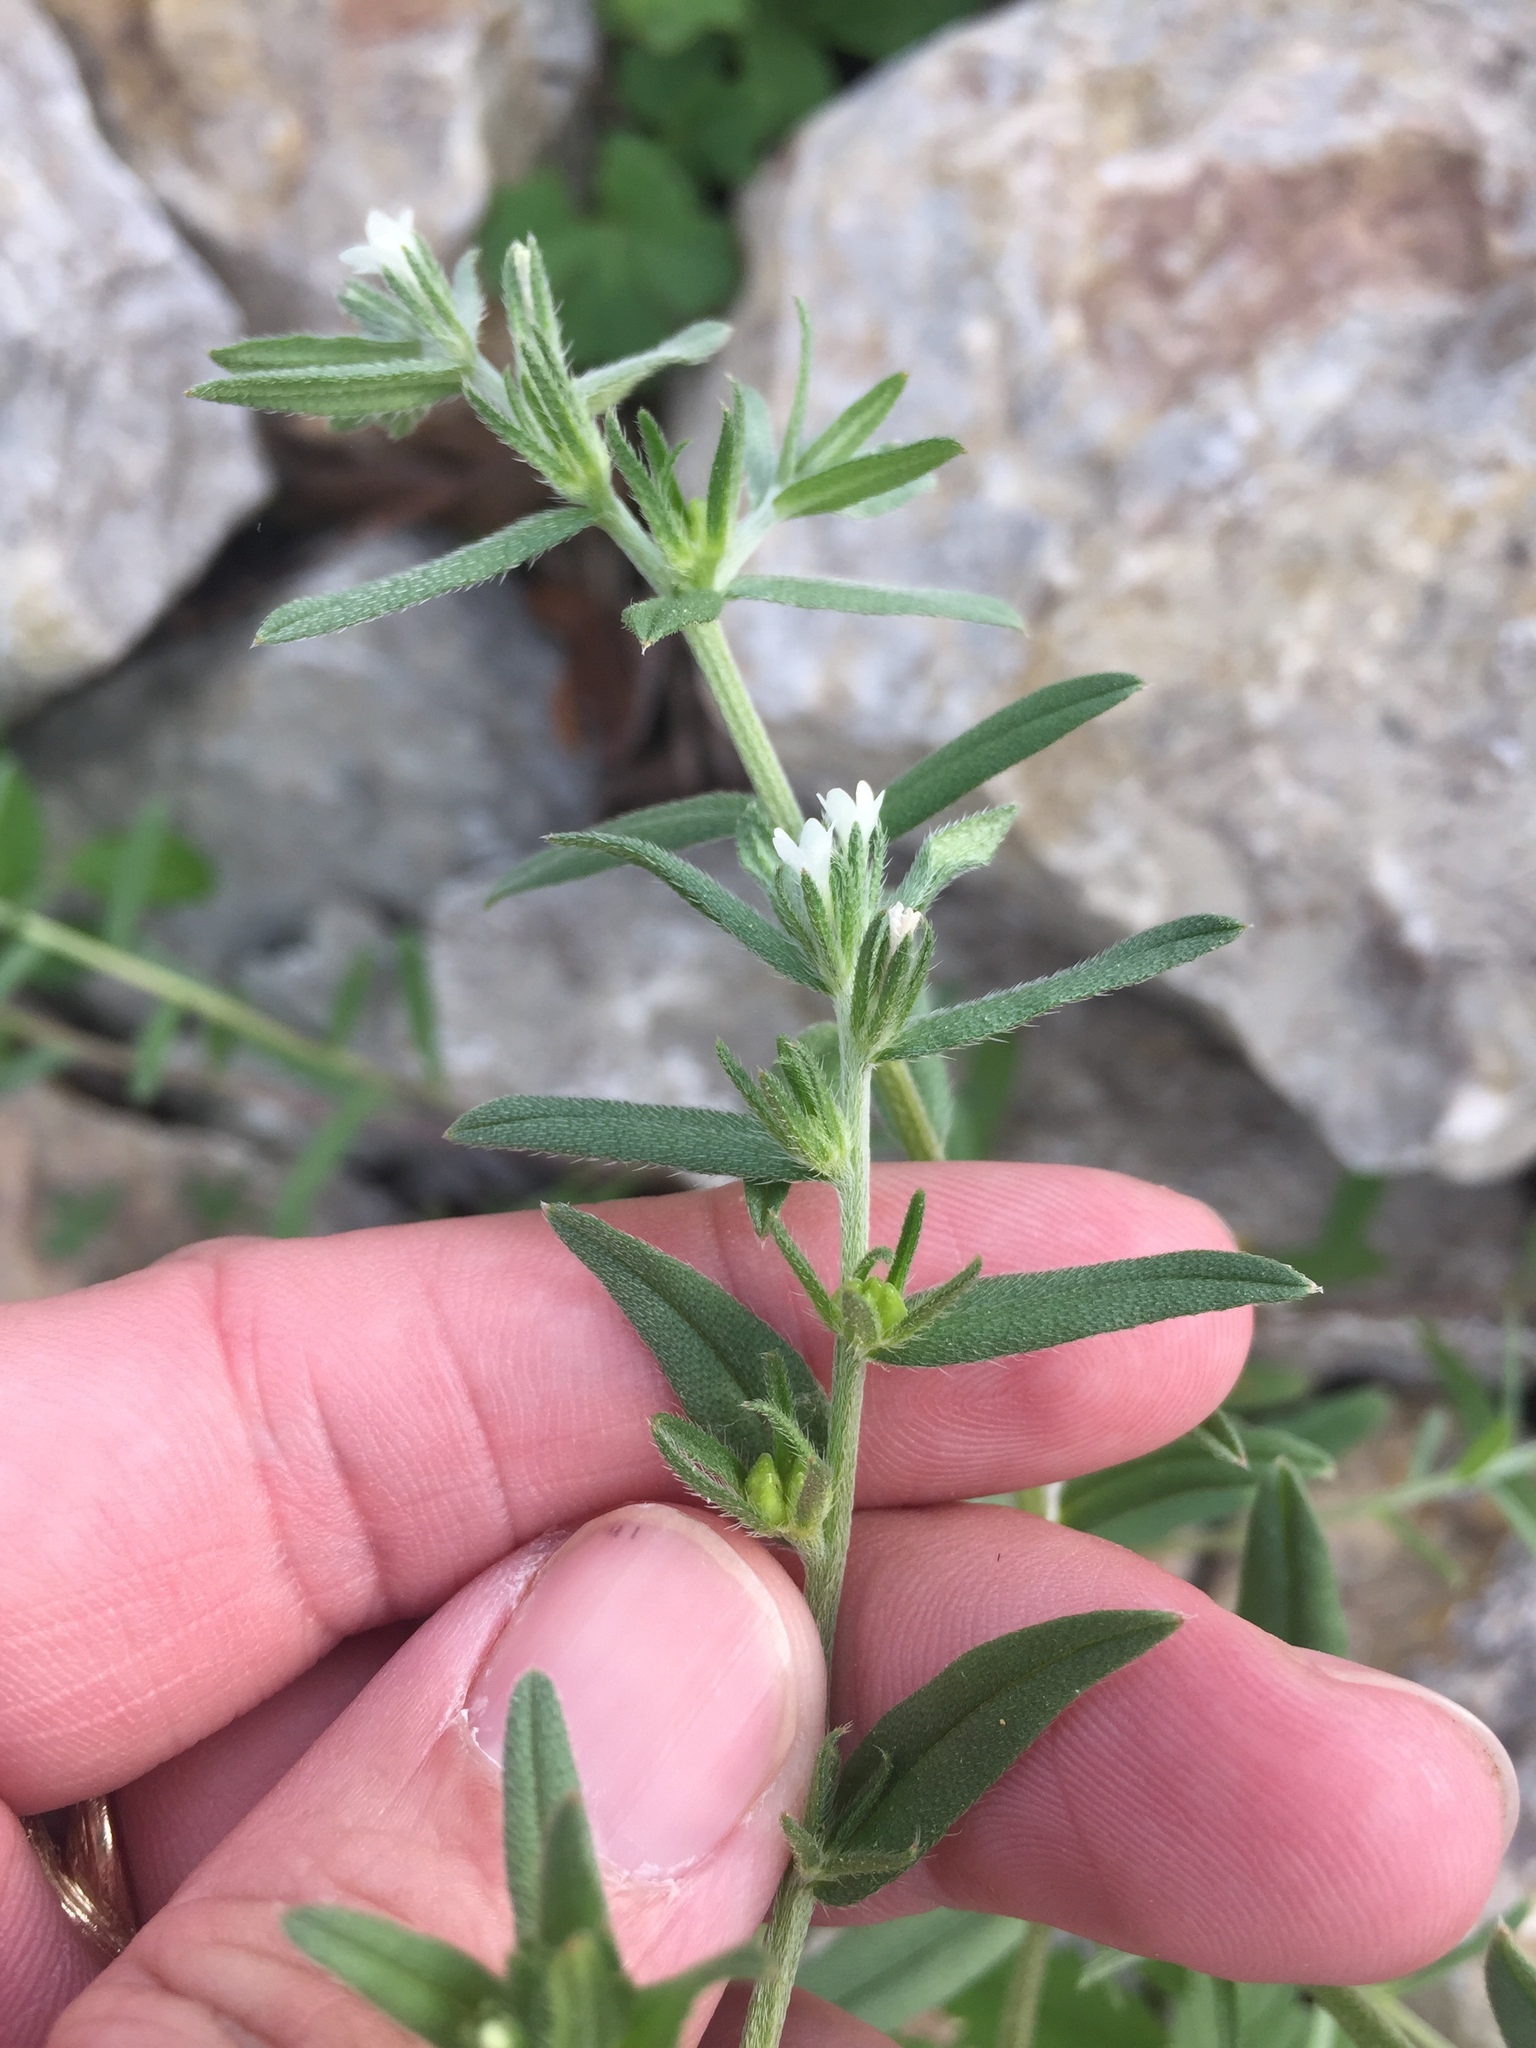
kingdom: Plantae
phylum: Tracheophyta
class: Magnoliopsida
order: Boraginales
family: Boraginaceae
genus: Buglossoides
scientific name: Buglossoides arvensis
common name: Corn gromwell
